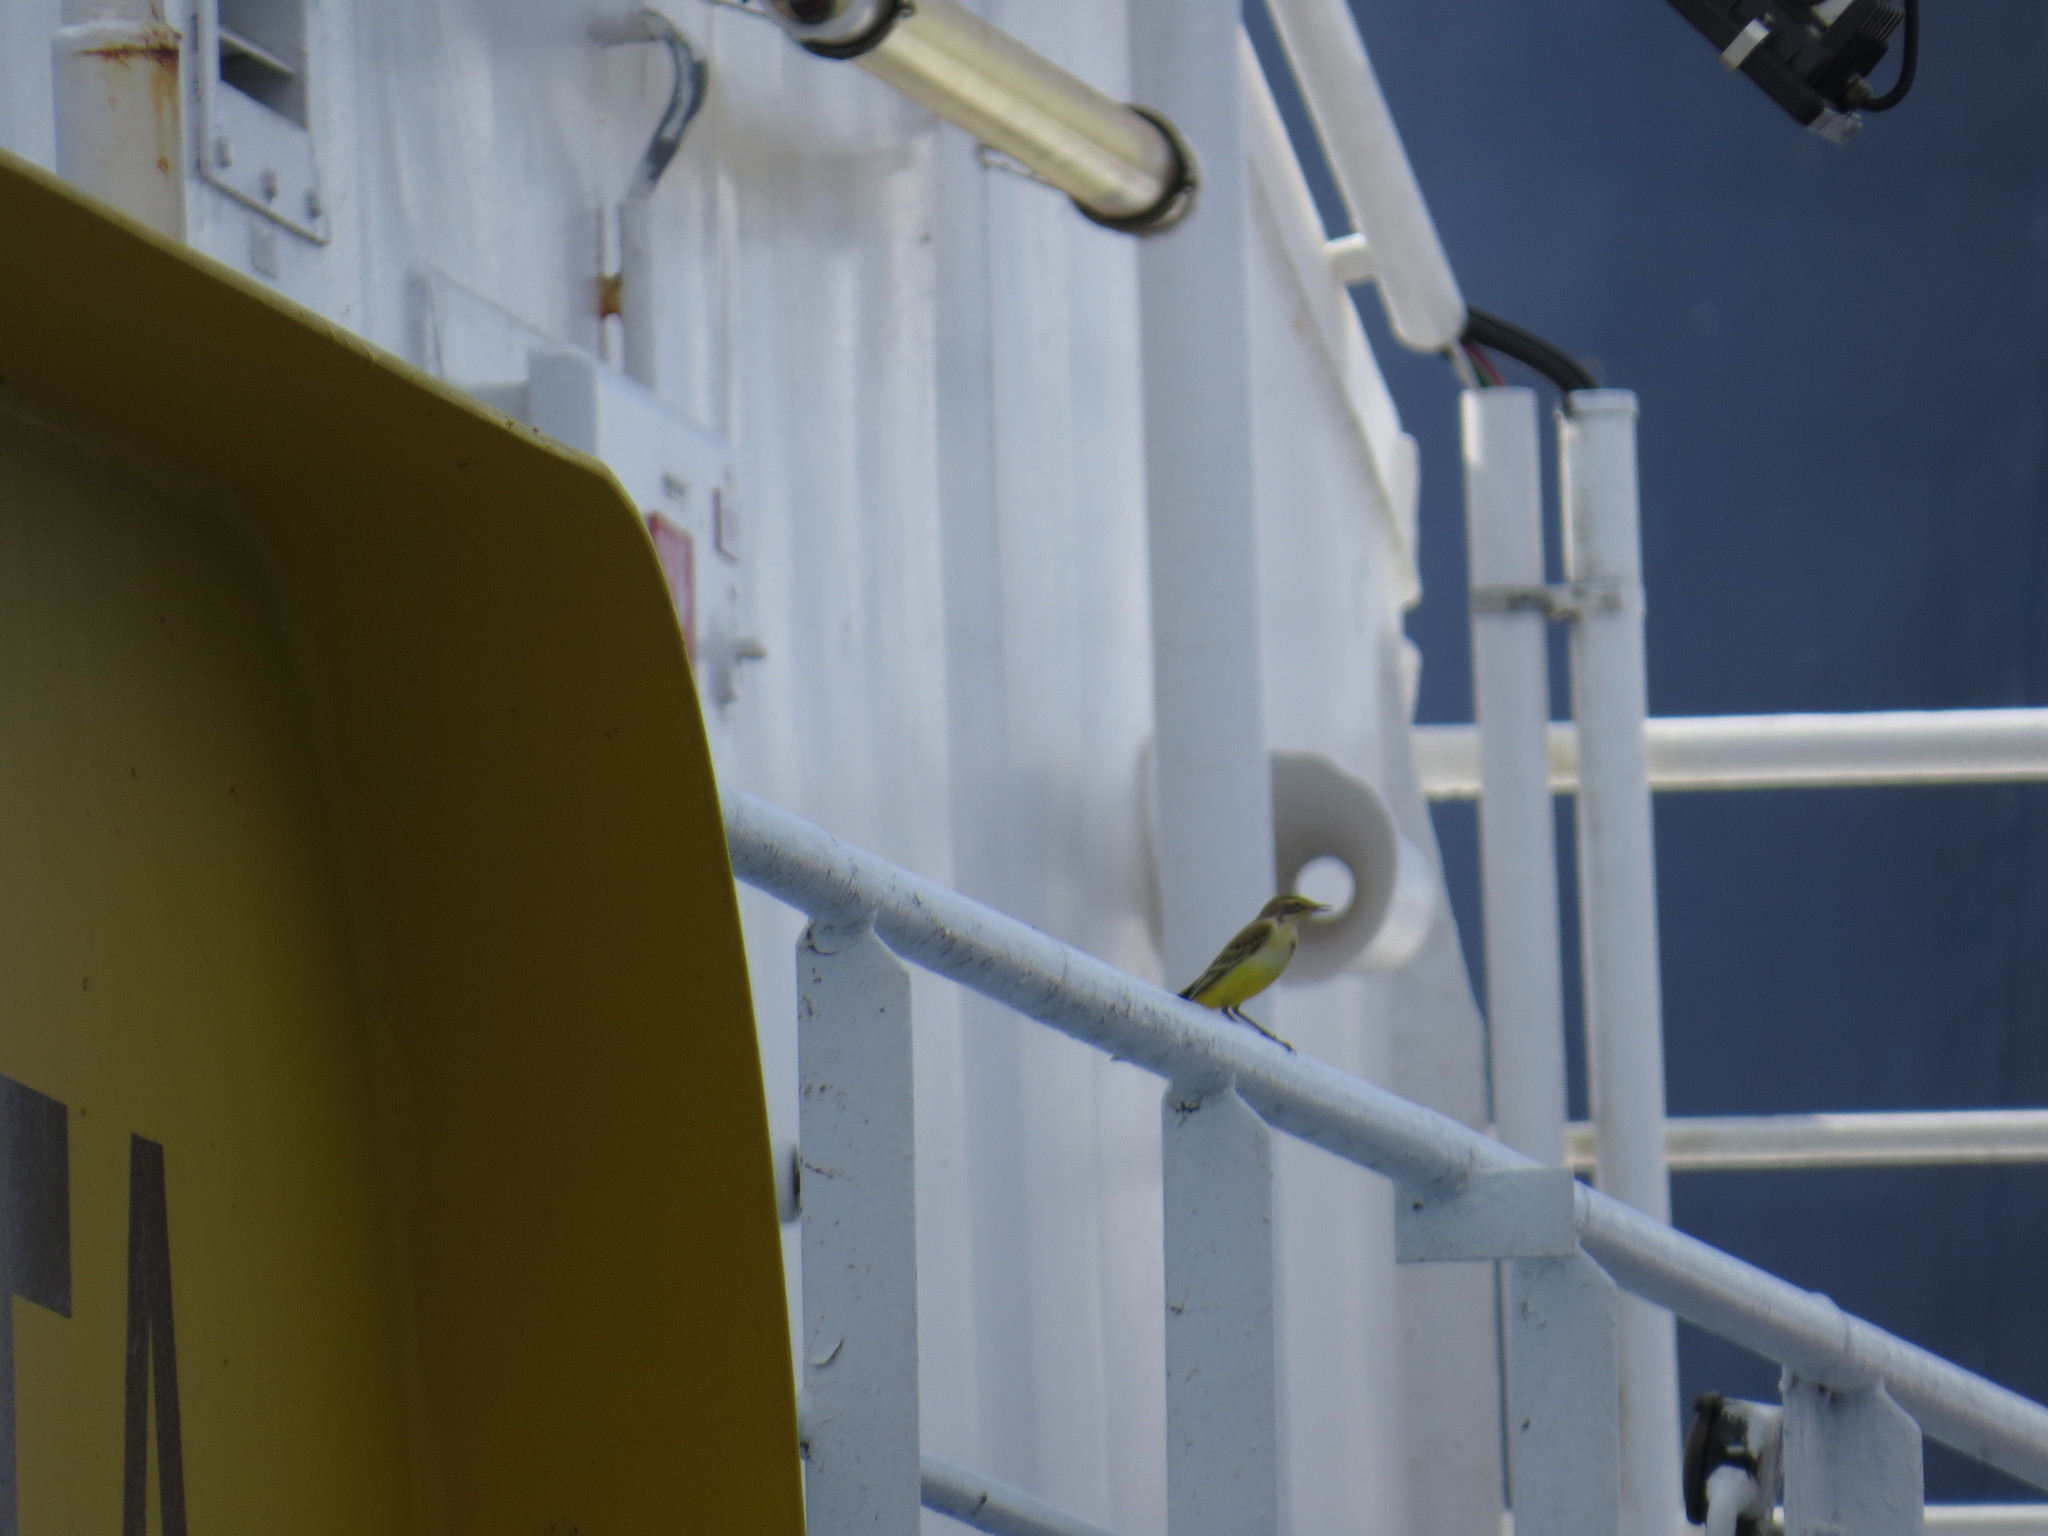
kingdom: Animalia
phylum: Chordata
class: Aves
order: Passeriformes
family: Motacillidae
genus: Motacilla
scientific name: Motacilla flava
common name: Western yellow wagtail
